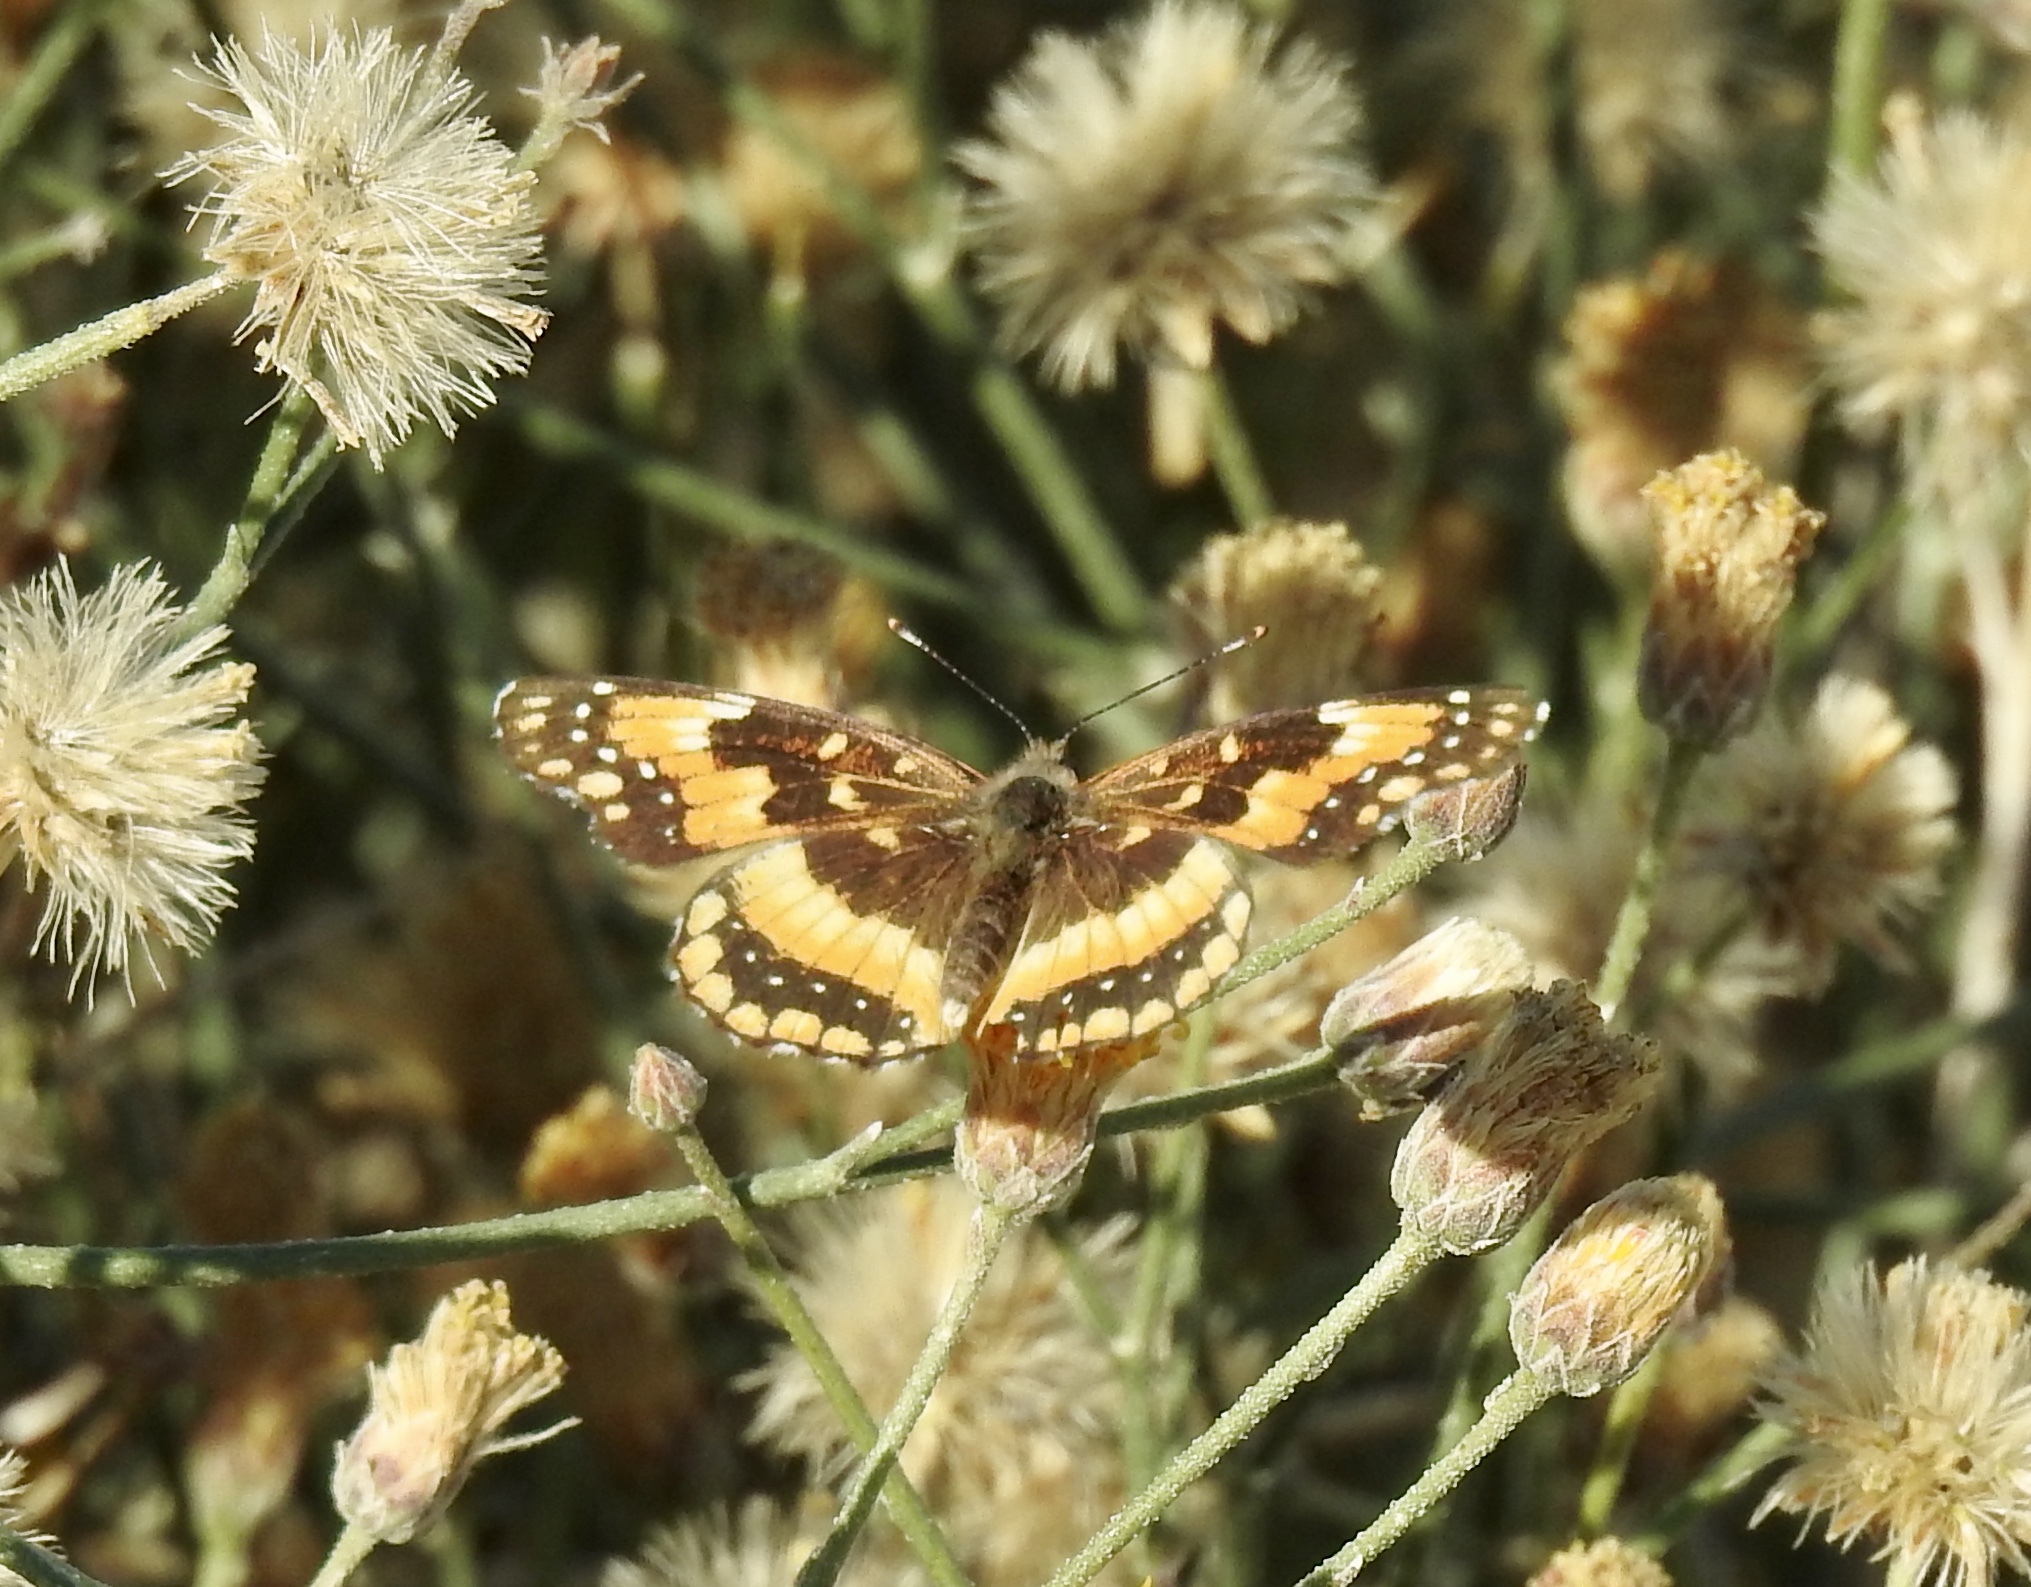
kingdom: Animalia
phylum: Arthropoda
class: Insecta
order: Lepidoptera
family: Nymphalidae
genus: Chlosyne
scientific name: Chlosyne californica
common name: California patch
